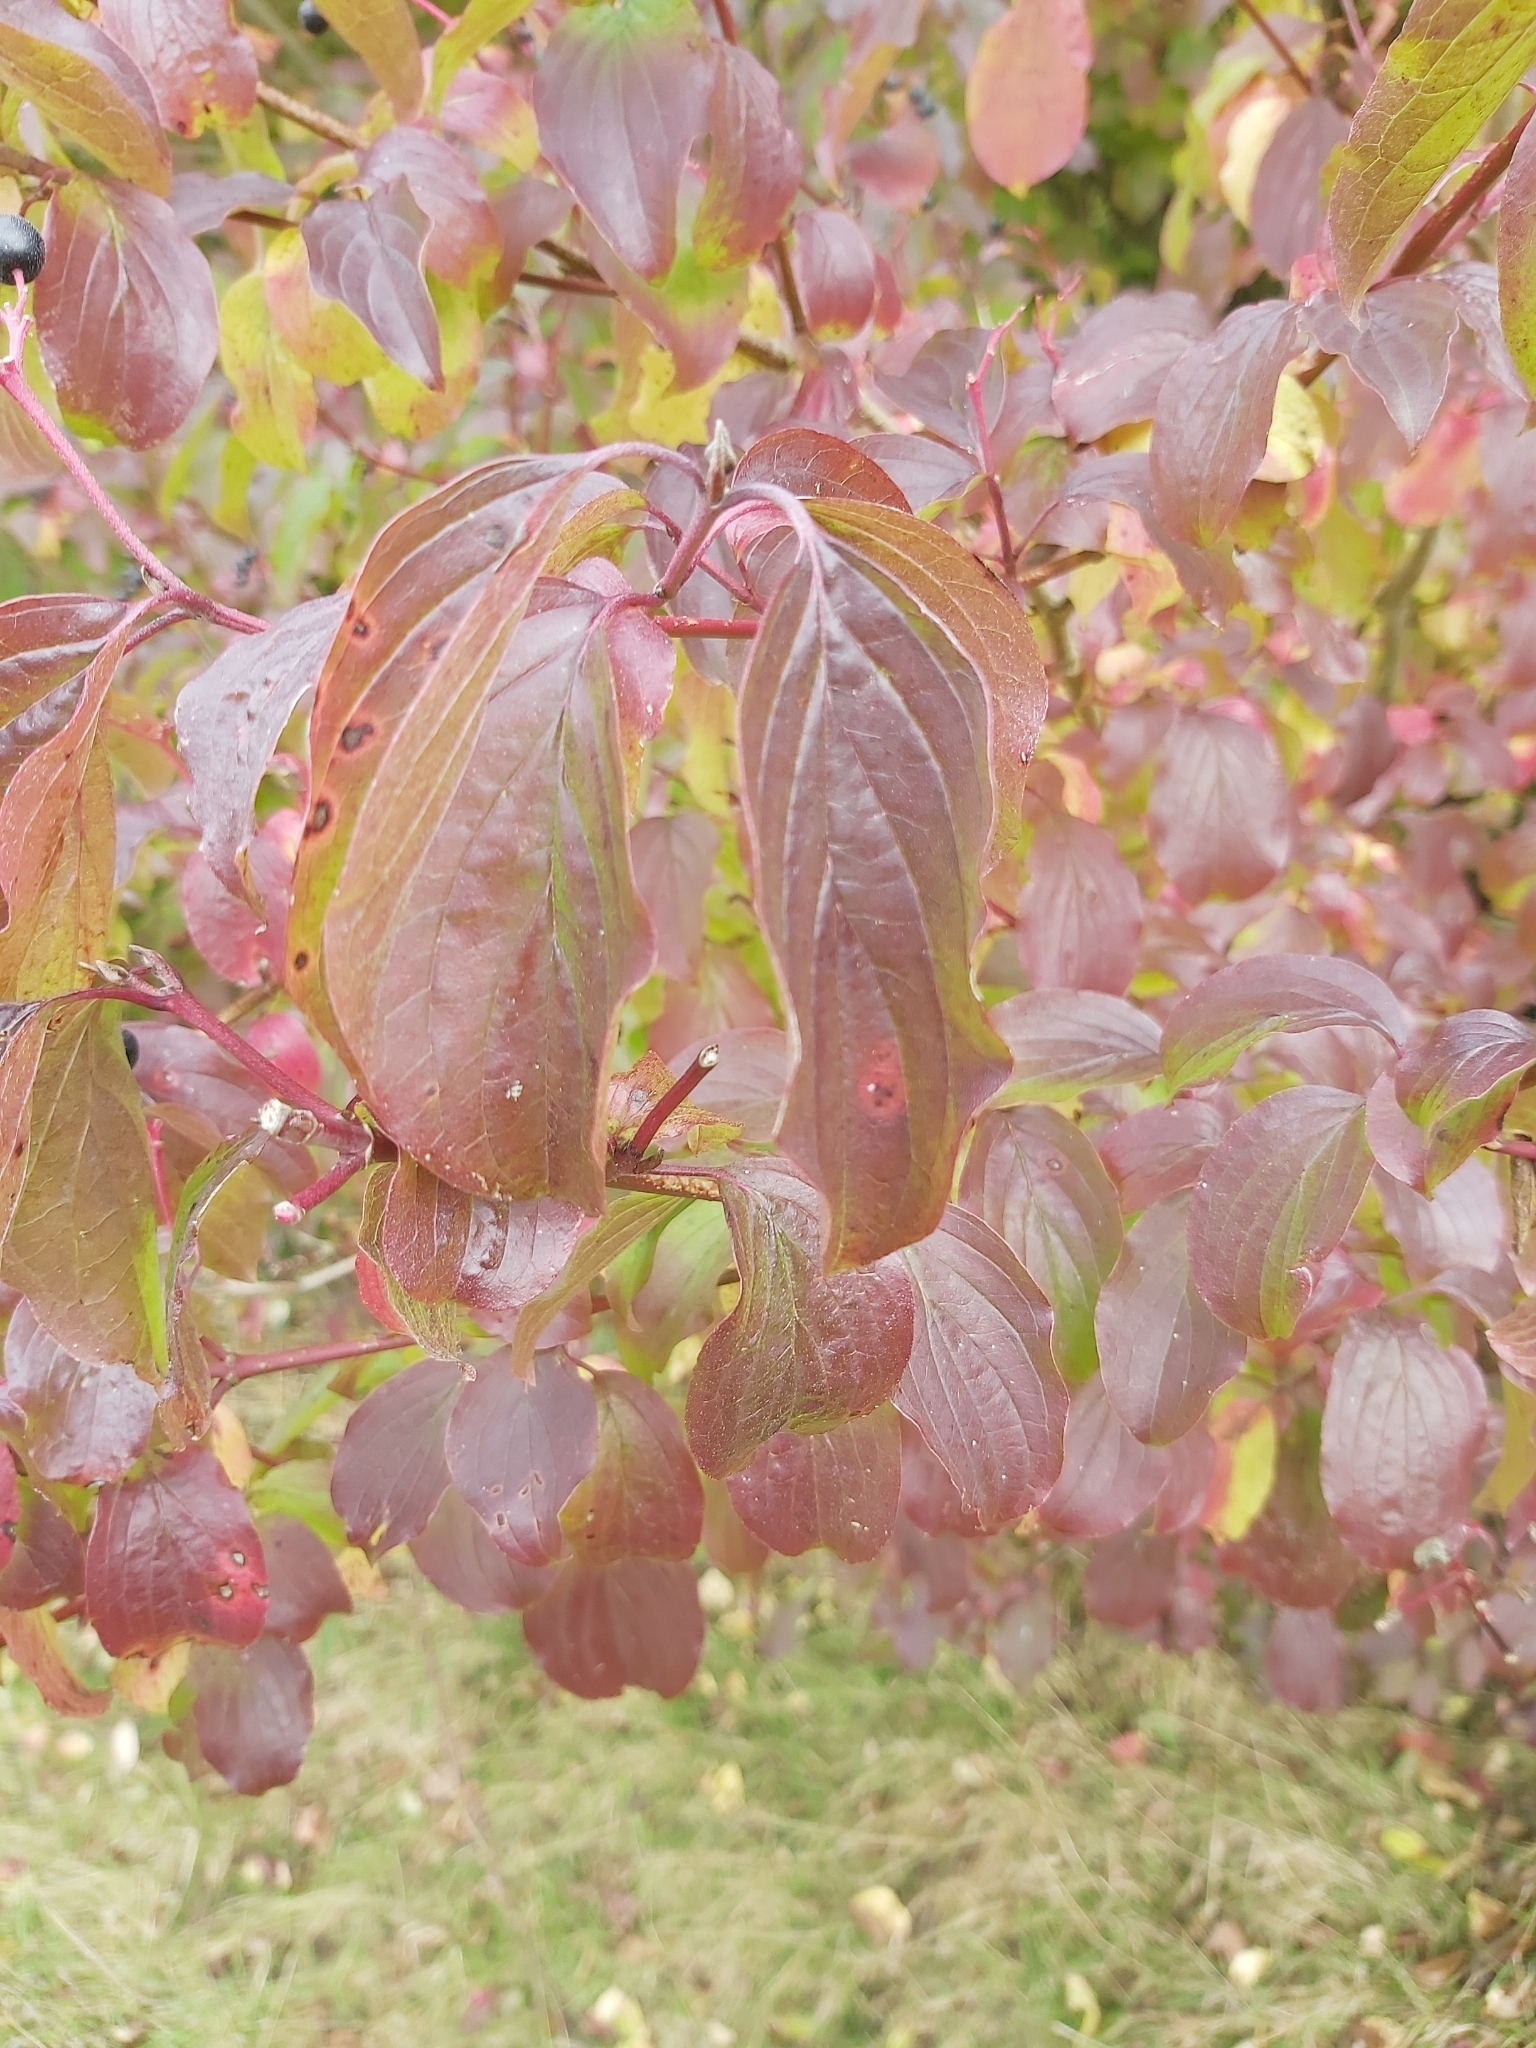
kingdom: Plantae
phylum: Tracheophyta
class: Magnoliopsida
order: Cornales
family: Cornaceae
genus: Cornus
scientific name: Cornus sanguinea
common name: Dogwood
